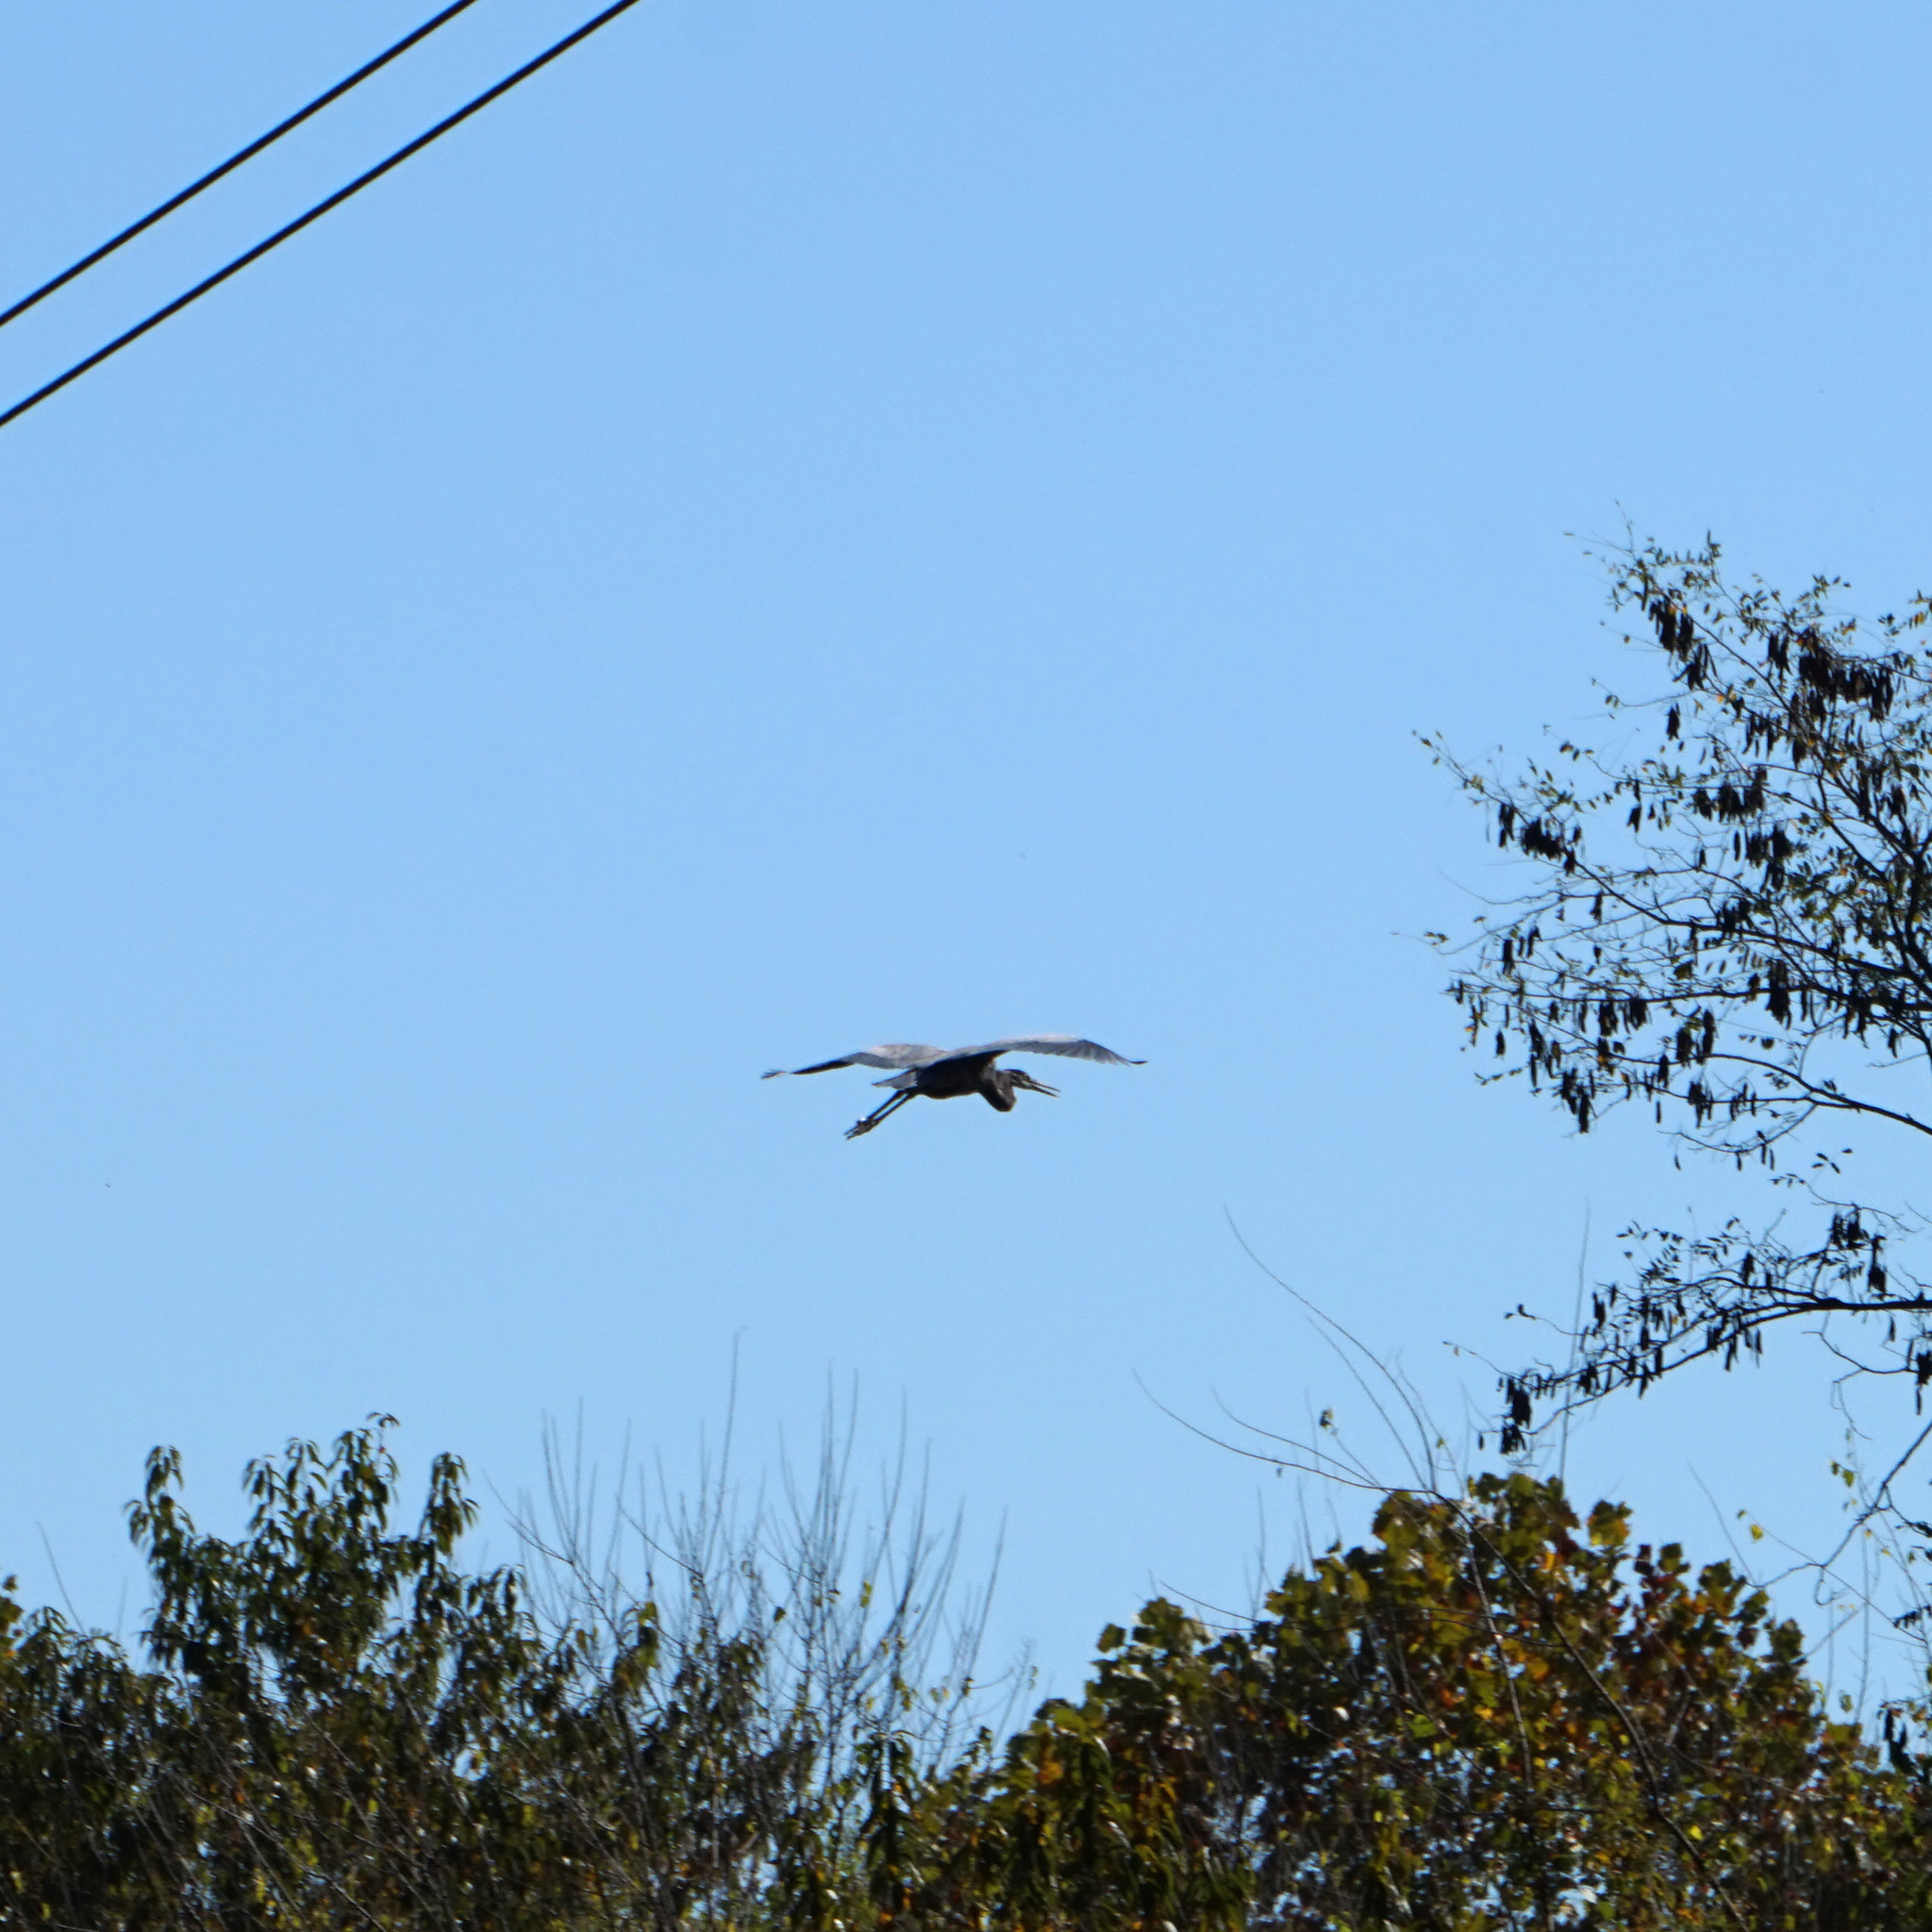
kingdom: Animalia
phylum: Chordata
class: Aves
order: Pelecaniformes
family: Ardeidae
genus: Ardea
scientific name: Ardea herodias
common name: Great blue heron
